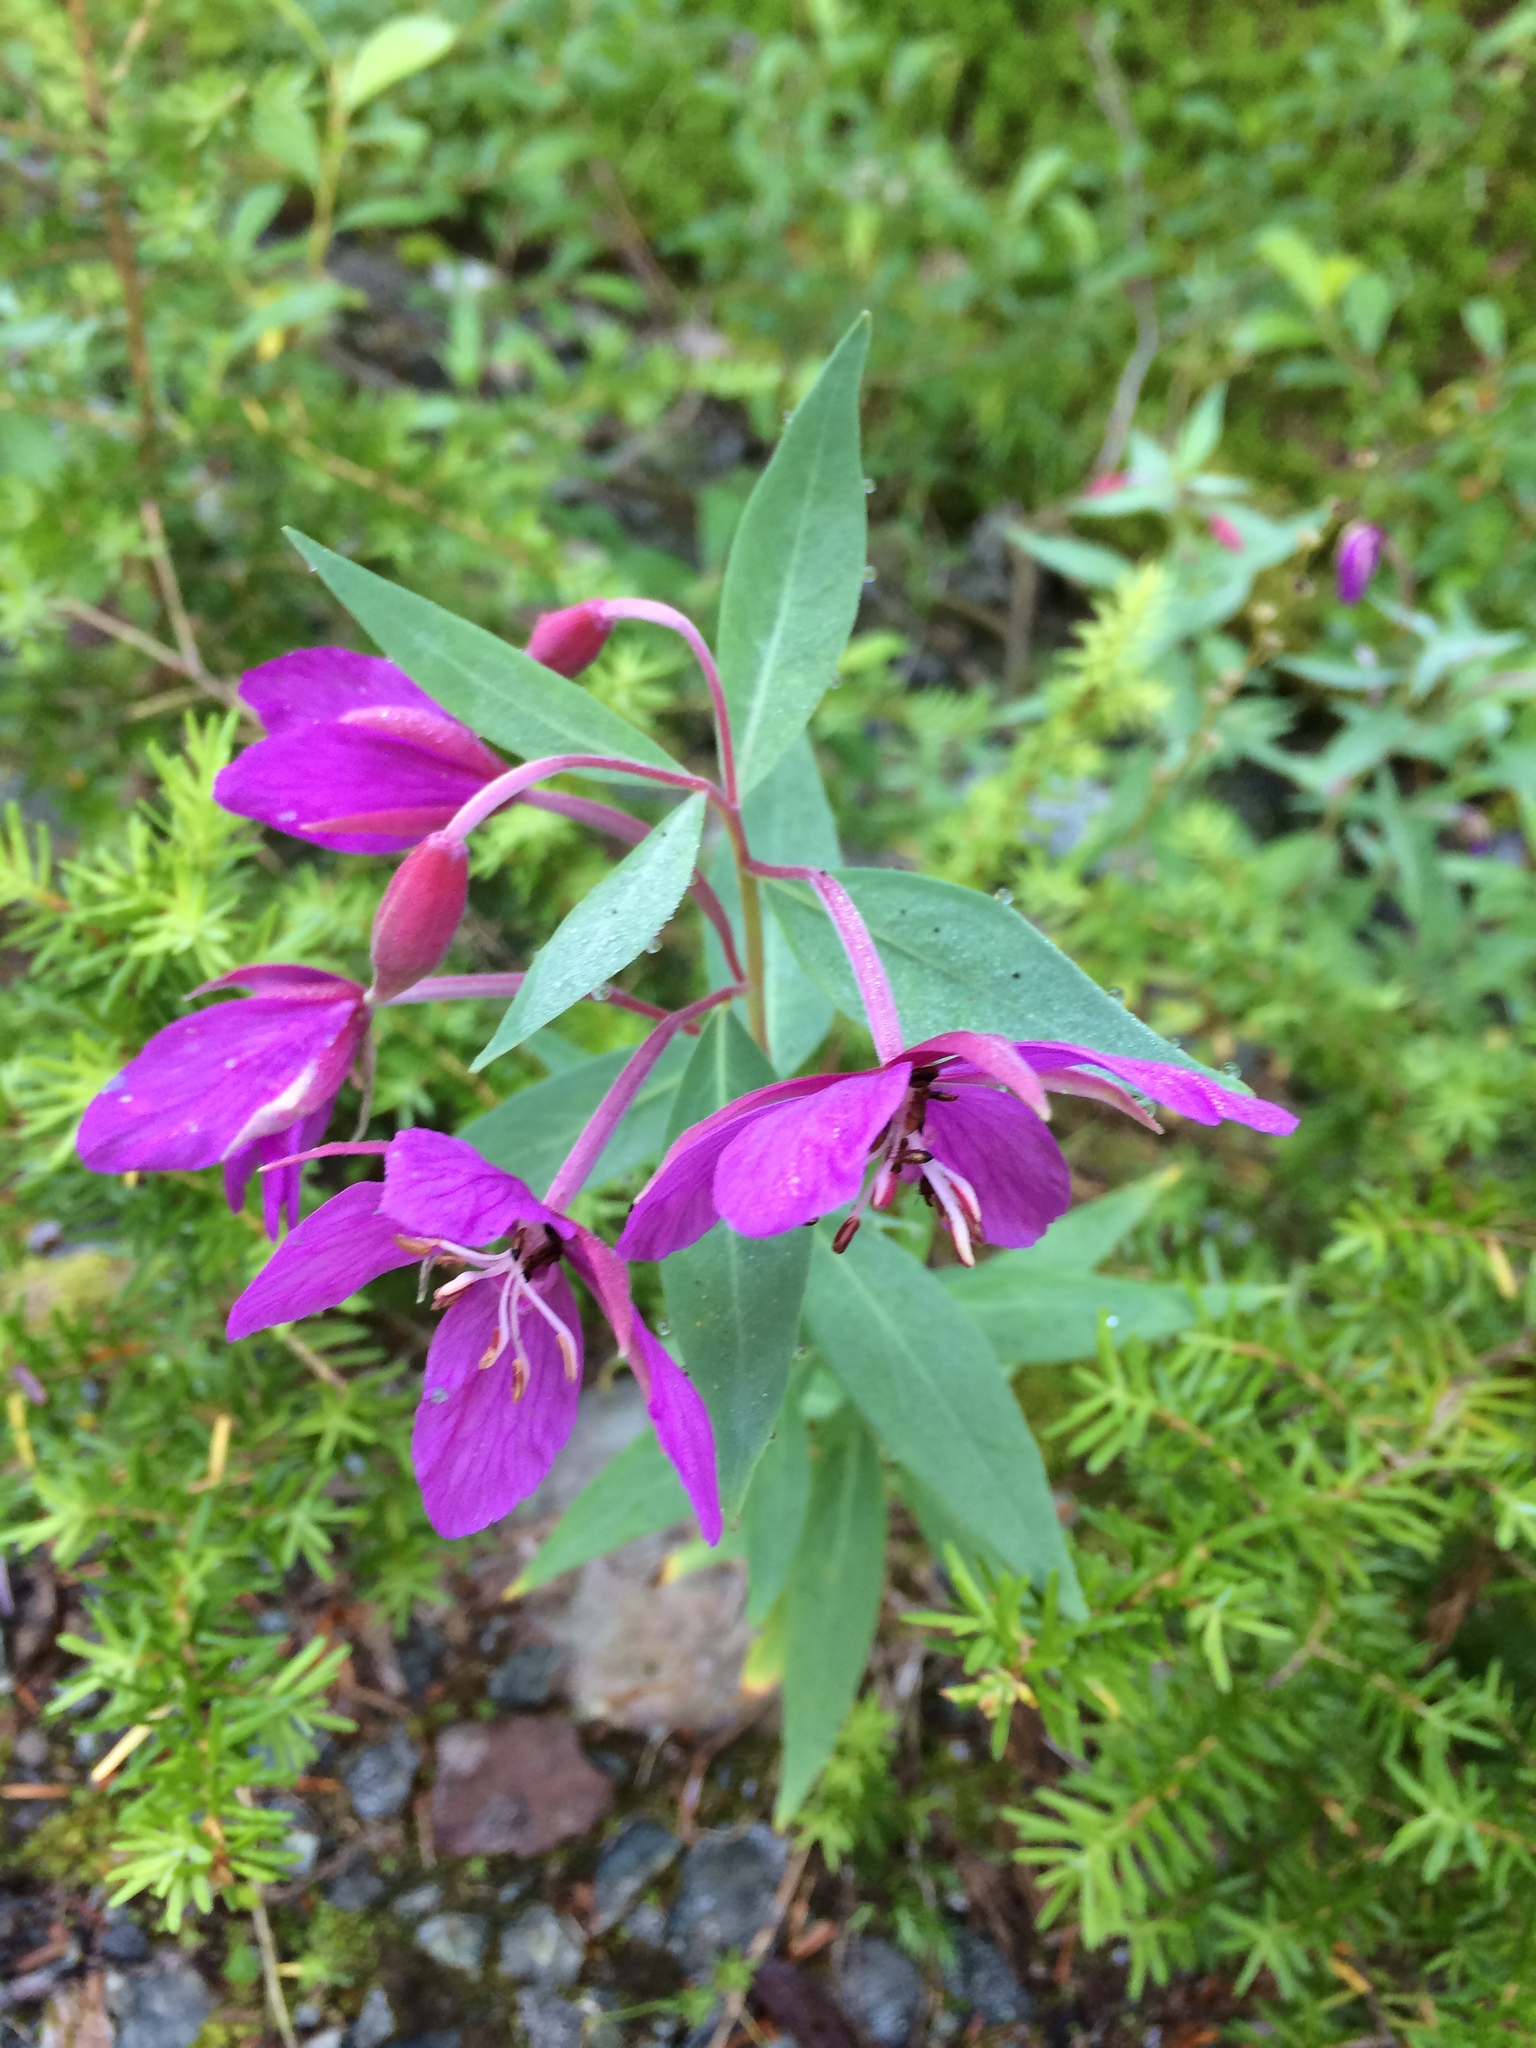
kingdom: Plantae
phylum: Tracheophyta
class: Magnoliopsida
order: Myrtales
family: Onagraceae
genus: Chamaenerion
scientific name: Chamaenerion latifolium
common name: Dwarf fireweed
